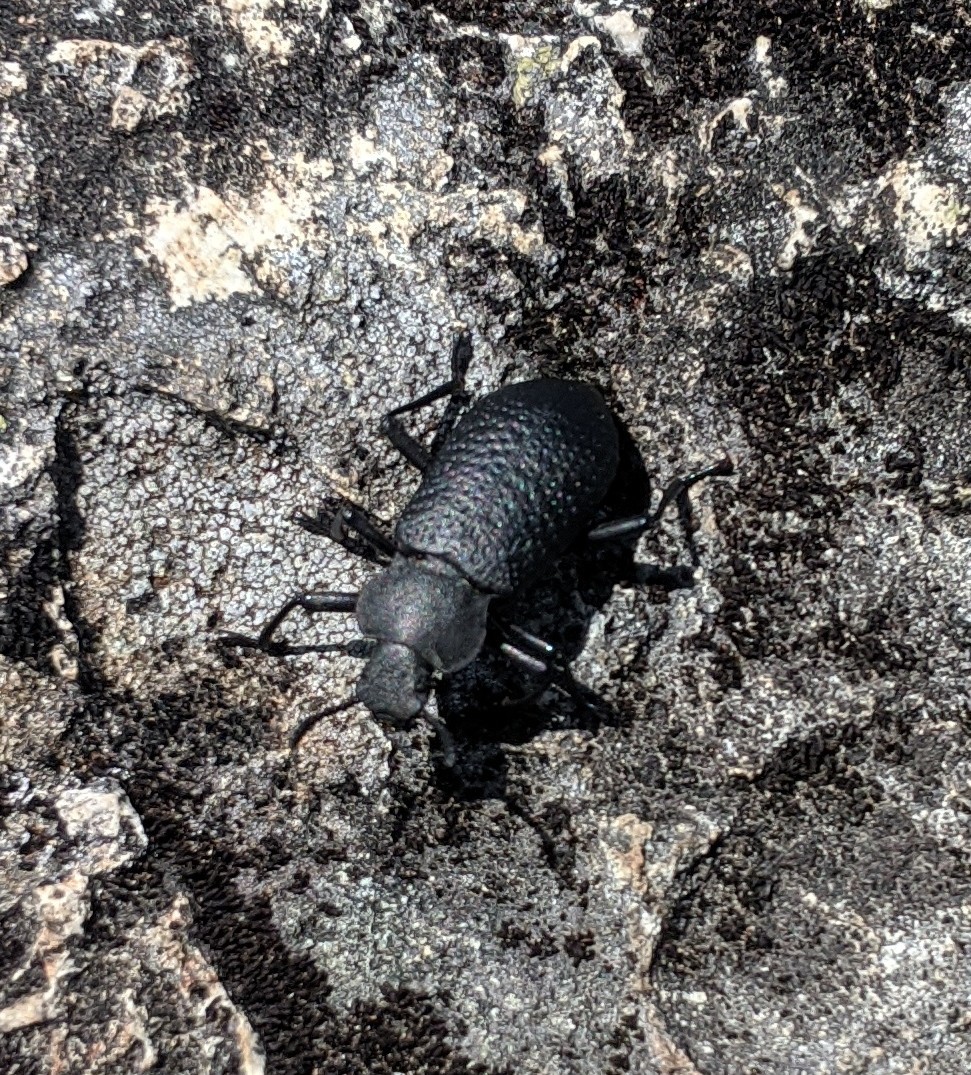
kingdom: Animalia
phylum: Arthropoda
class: Insecta
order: Coleoptera
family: Tenebrionidae
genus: Upis
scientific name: Upis ceramboides
